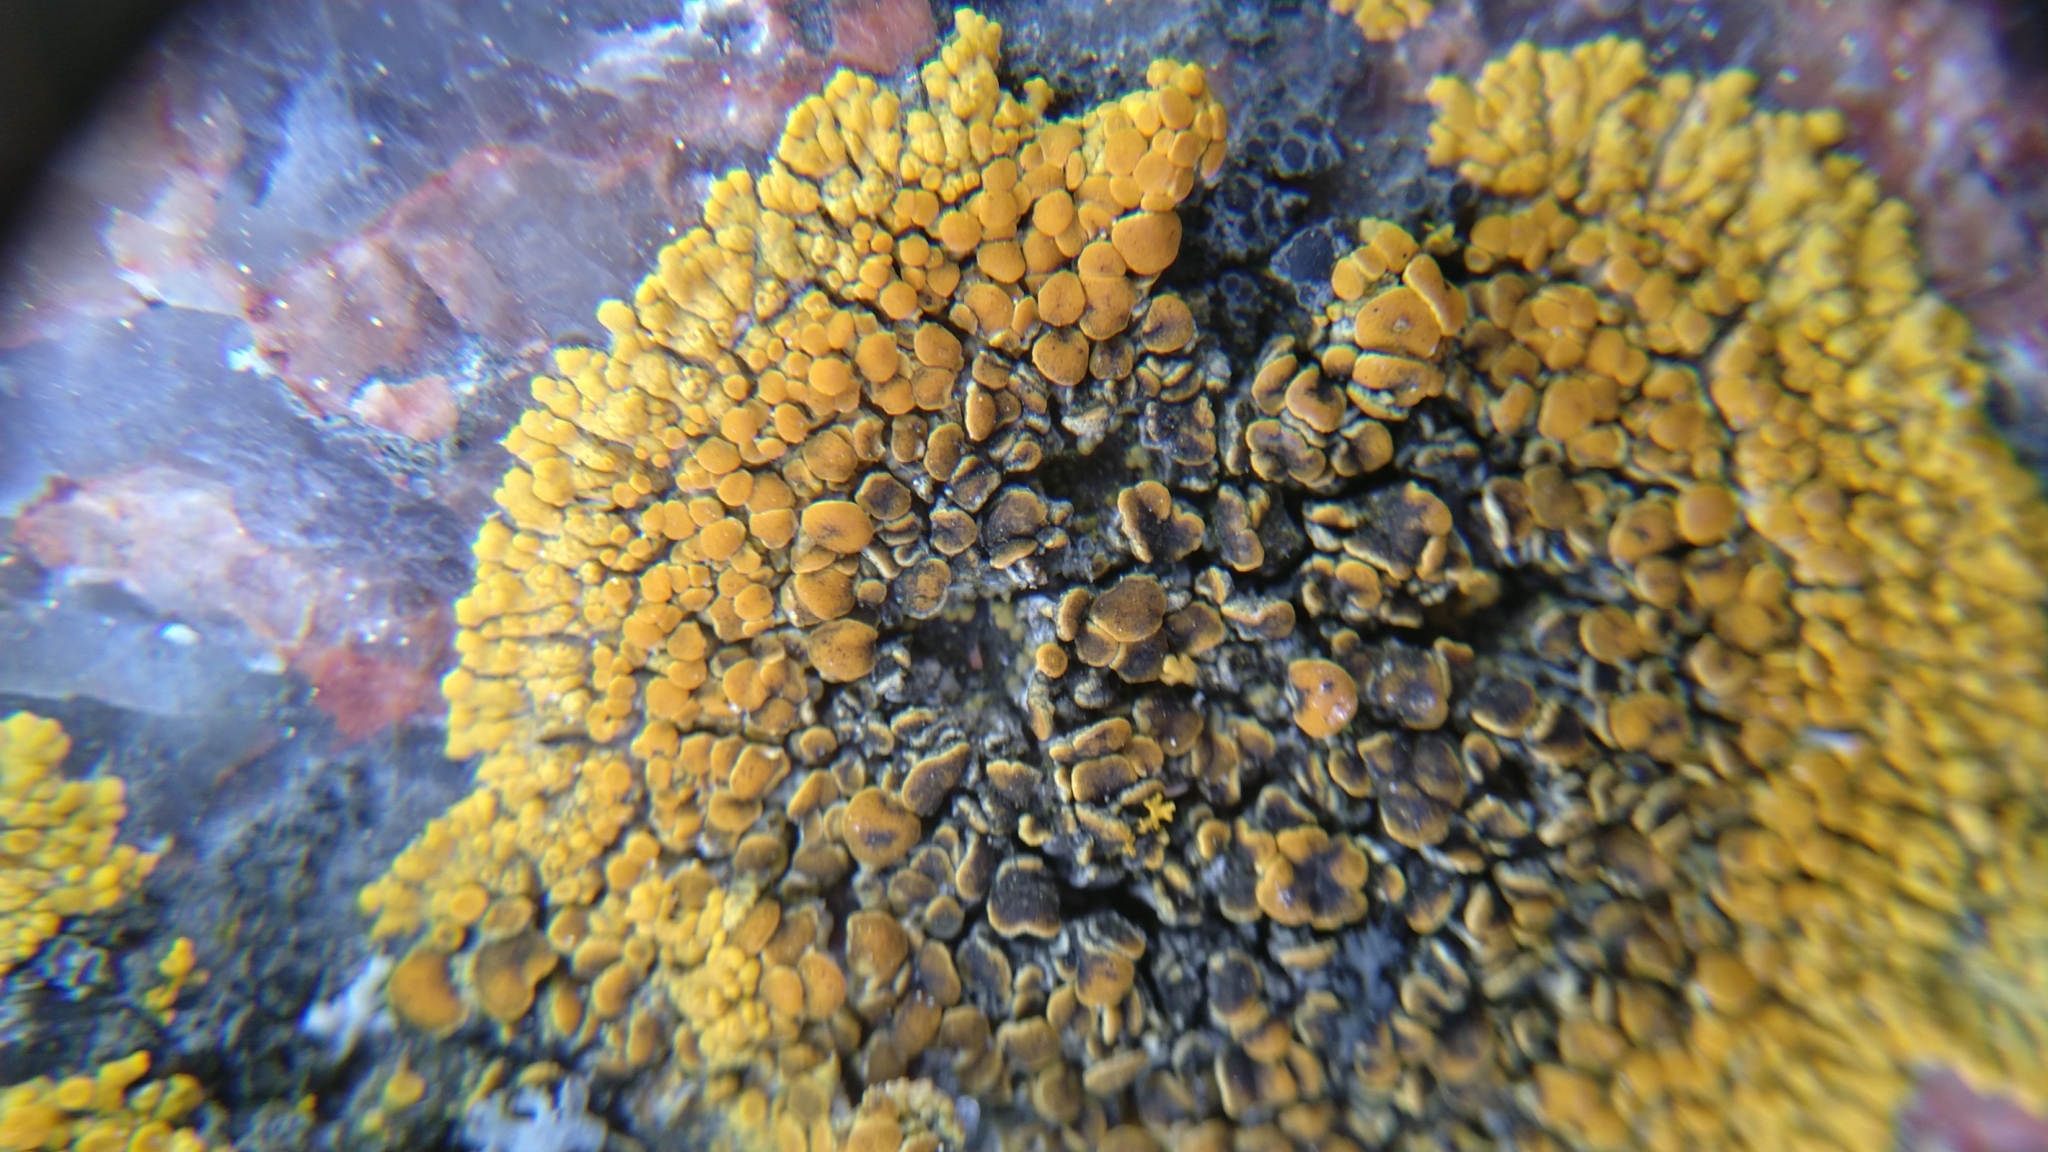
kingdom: Fungi
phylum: Ascomycota
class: Lecanoromycetes
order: Teloschistales
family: Teloschistaceae
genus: Athallia
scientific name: Athallia scopularis
